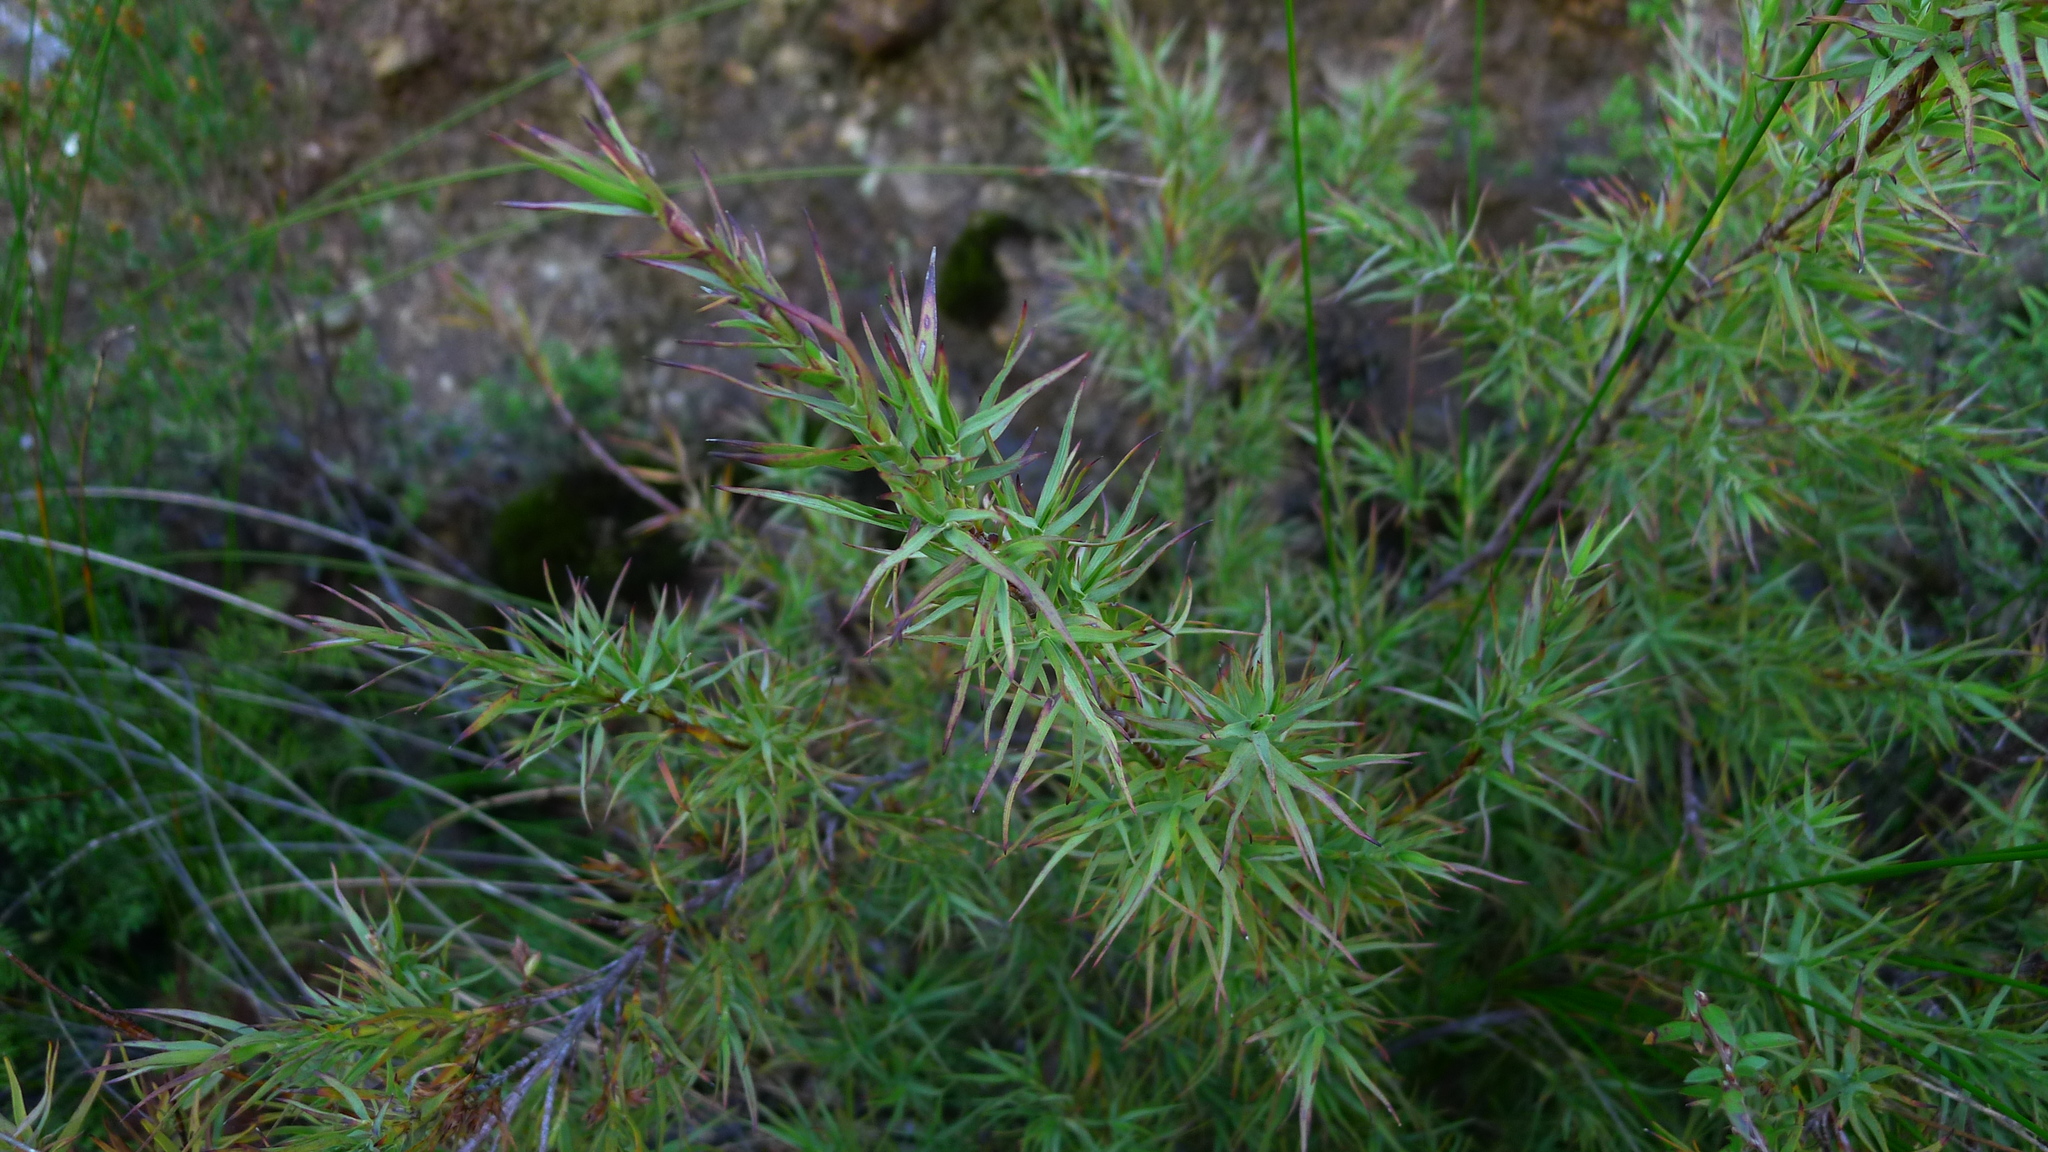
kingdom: Plantae
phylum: Tracheophyta
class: Magnoliopsida
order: Ericales
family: Ericaceae
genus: Dracophyllum
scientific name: Dracophyllum trimorphum
